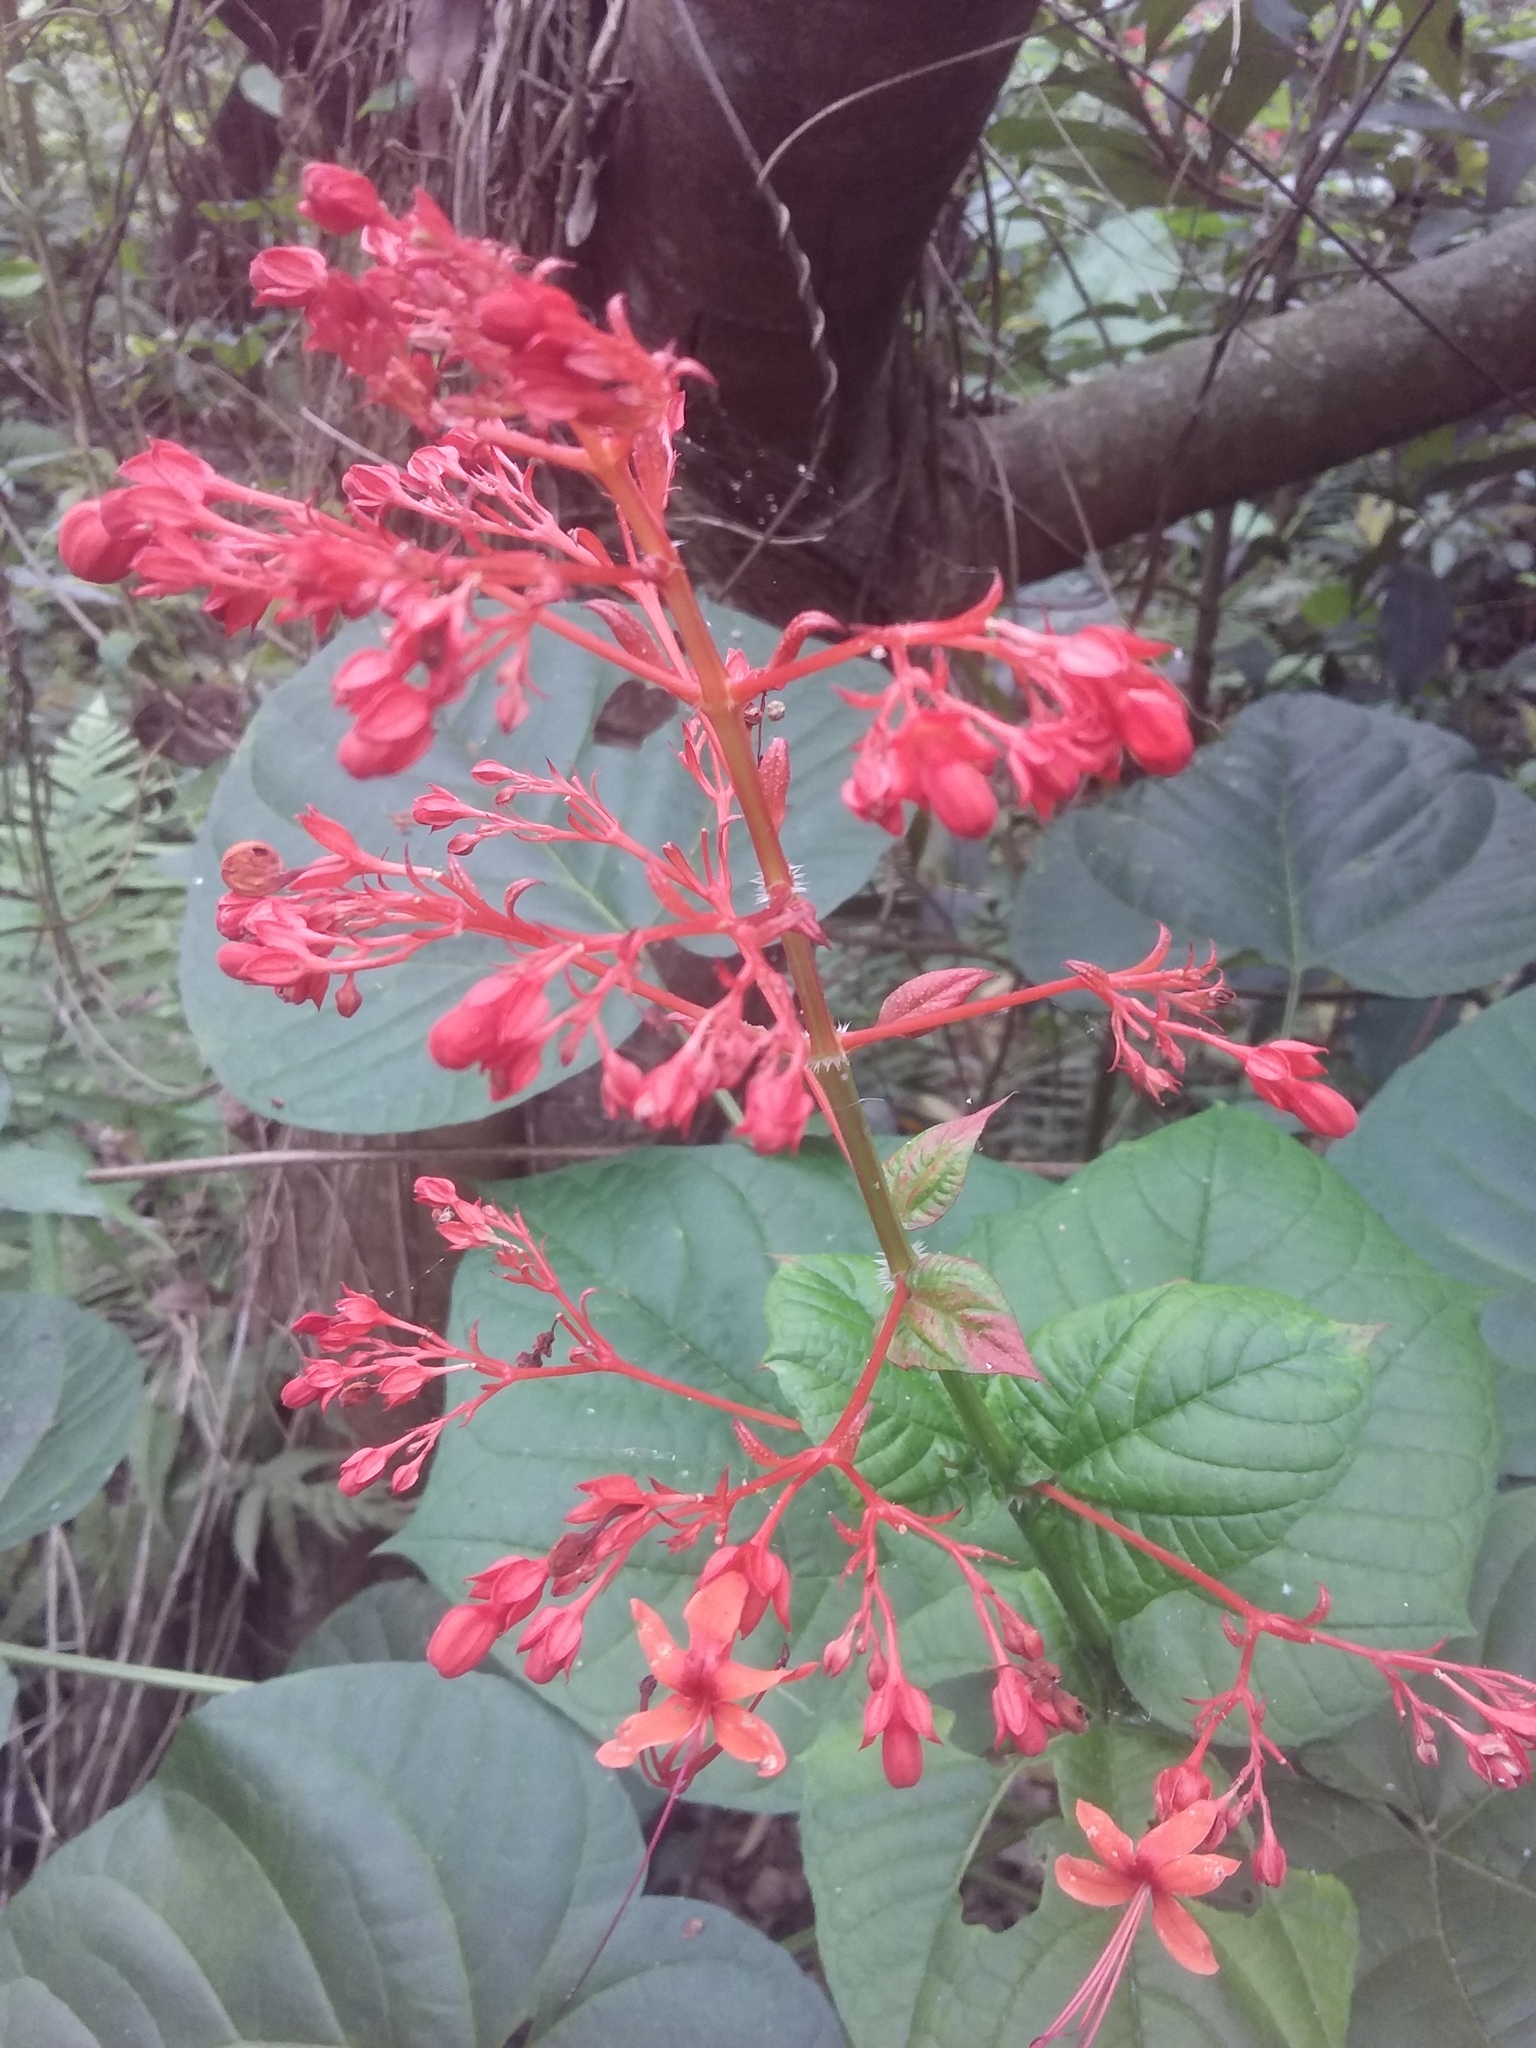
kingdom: Plantae
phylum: Tracheophyta
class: Magnoliopsida
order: Lamiales
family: Lamiaceae
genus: Clerodendrum
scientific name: Clerodendrum japonicum
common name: Japanese glorybower
